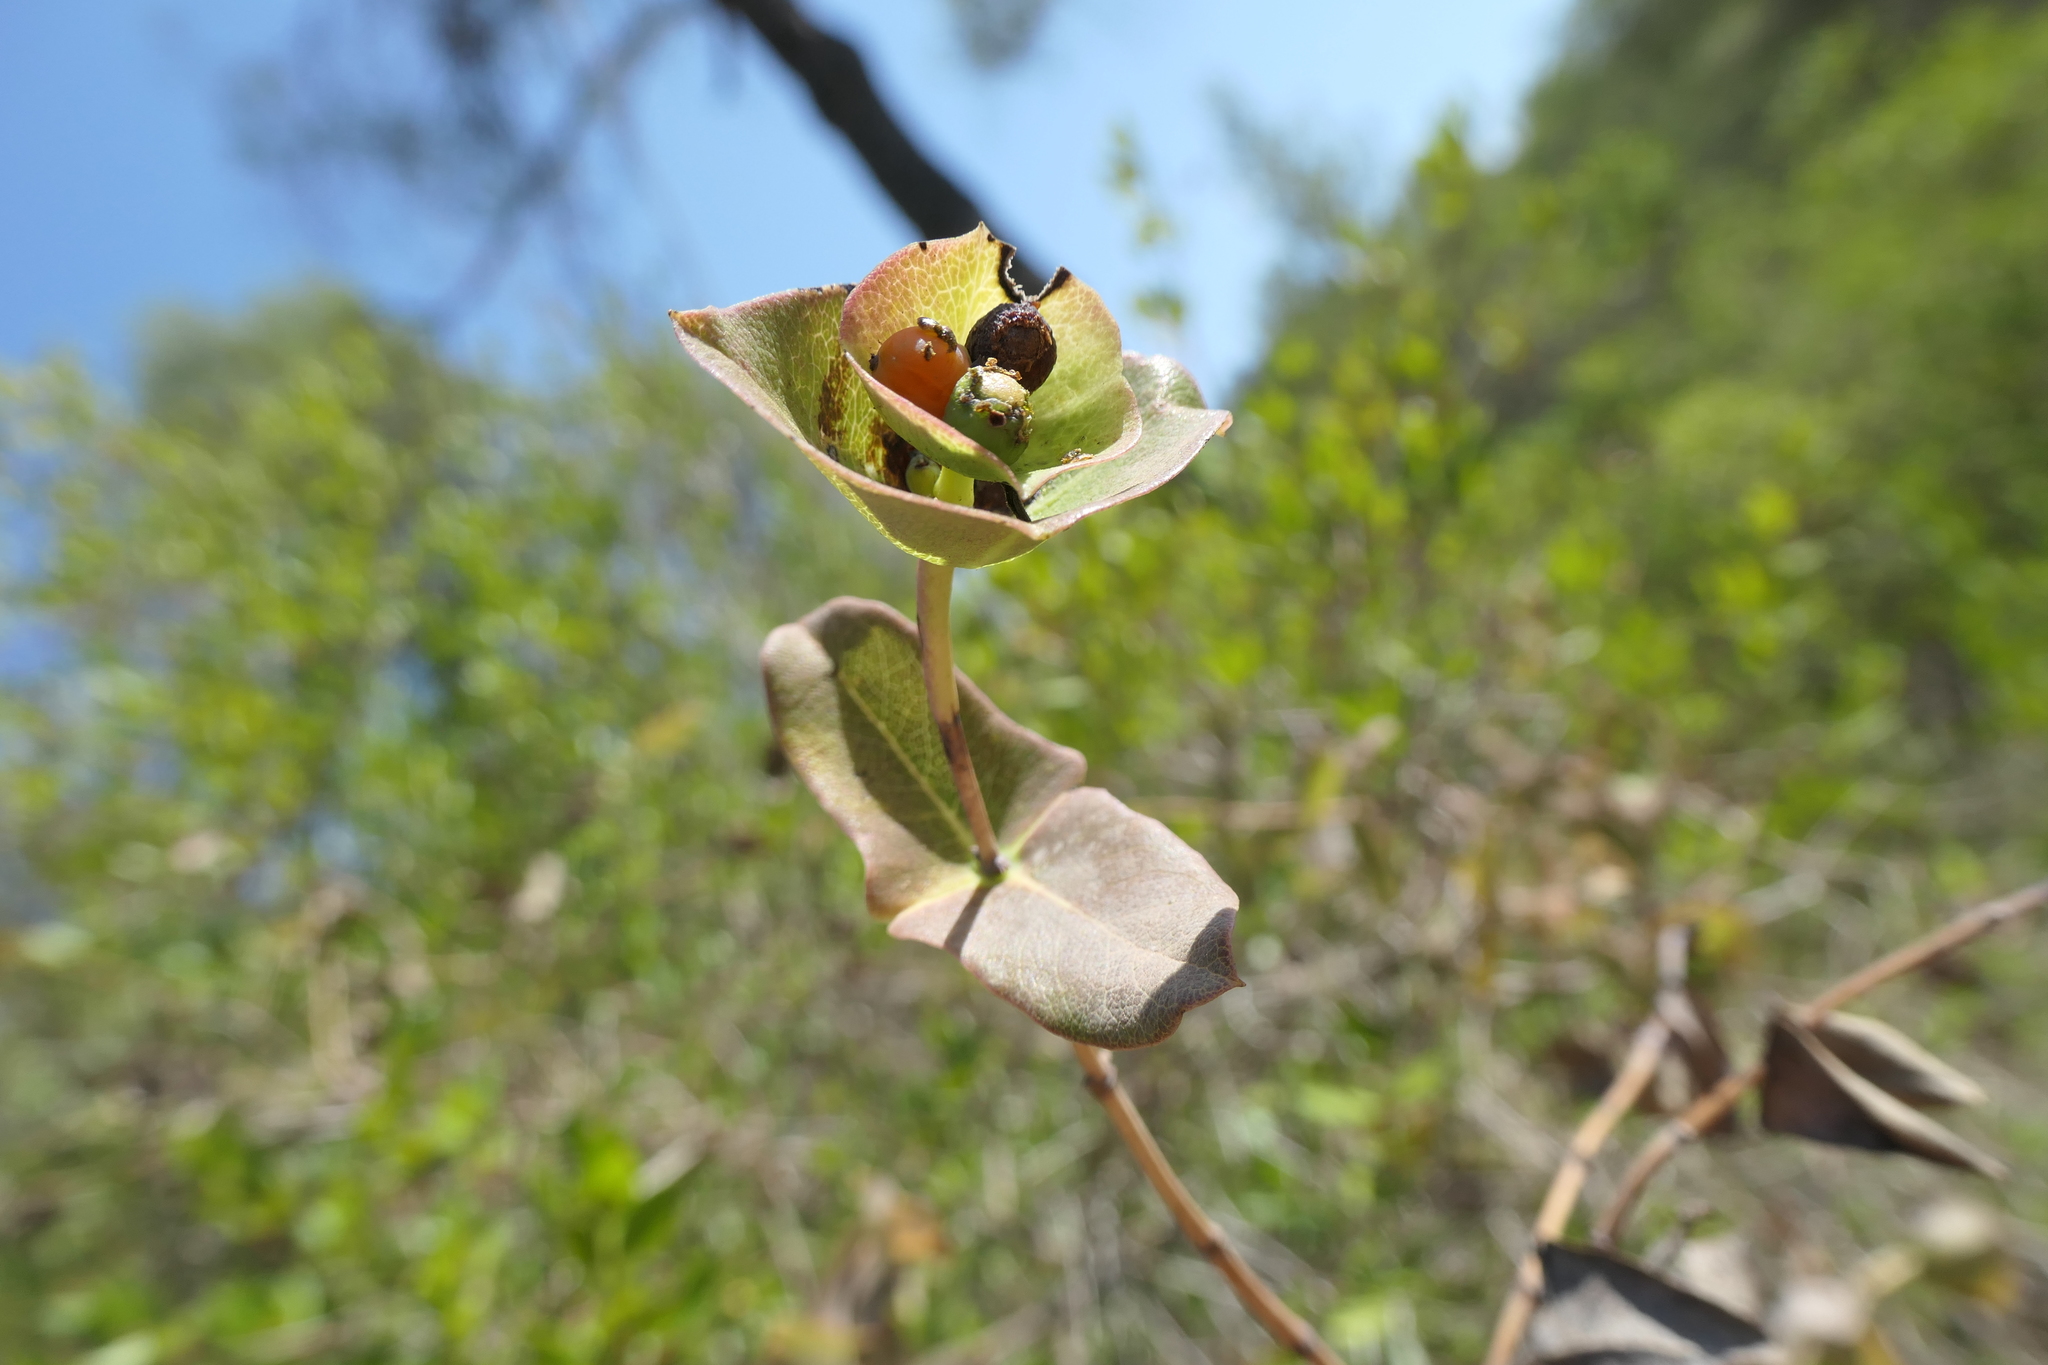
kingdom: Plantae
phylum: Tracheophyta
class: Magnoliopsida
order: Dipsacales
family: Caprifoliaceae
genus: Lonicera
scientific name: Lonicera implexa
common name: Minorca honeysuckle
